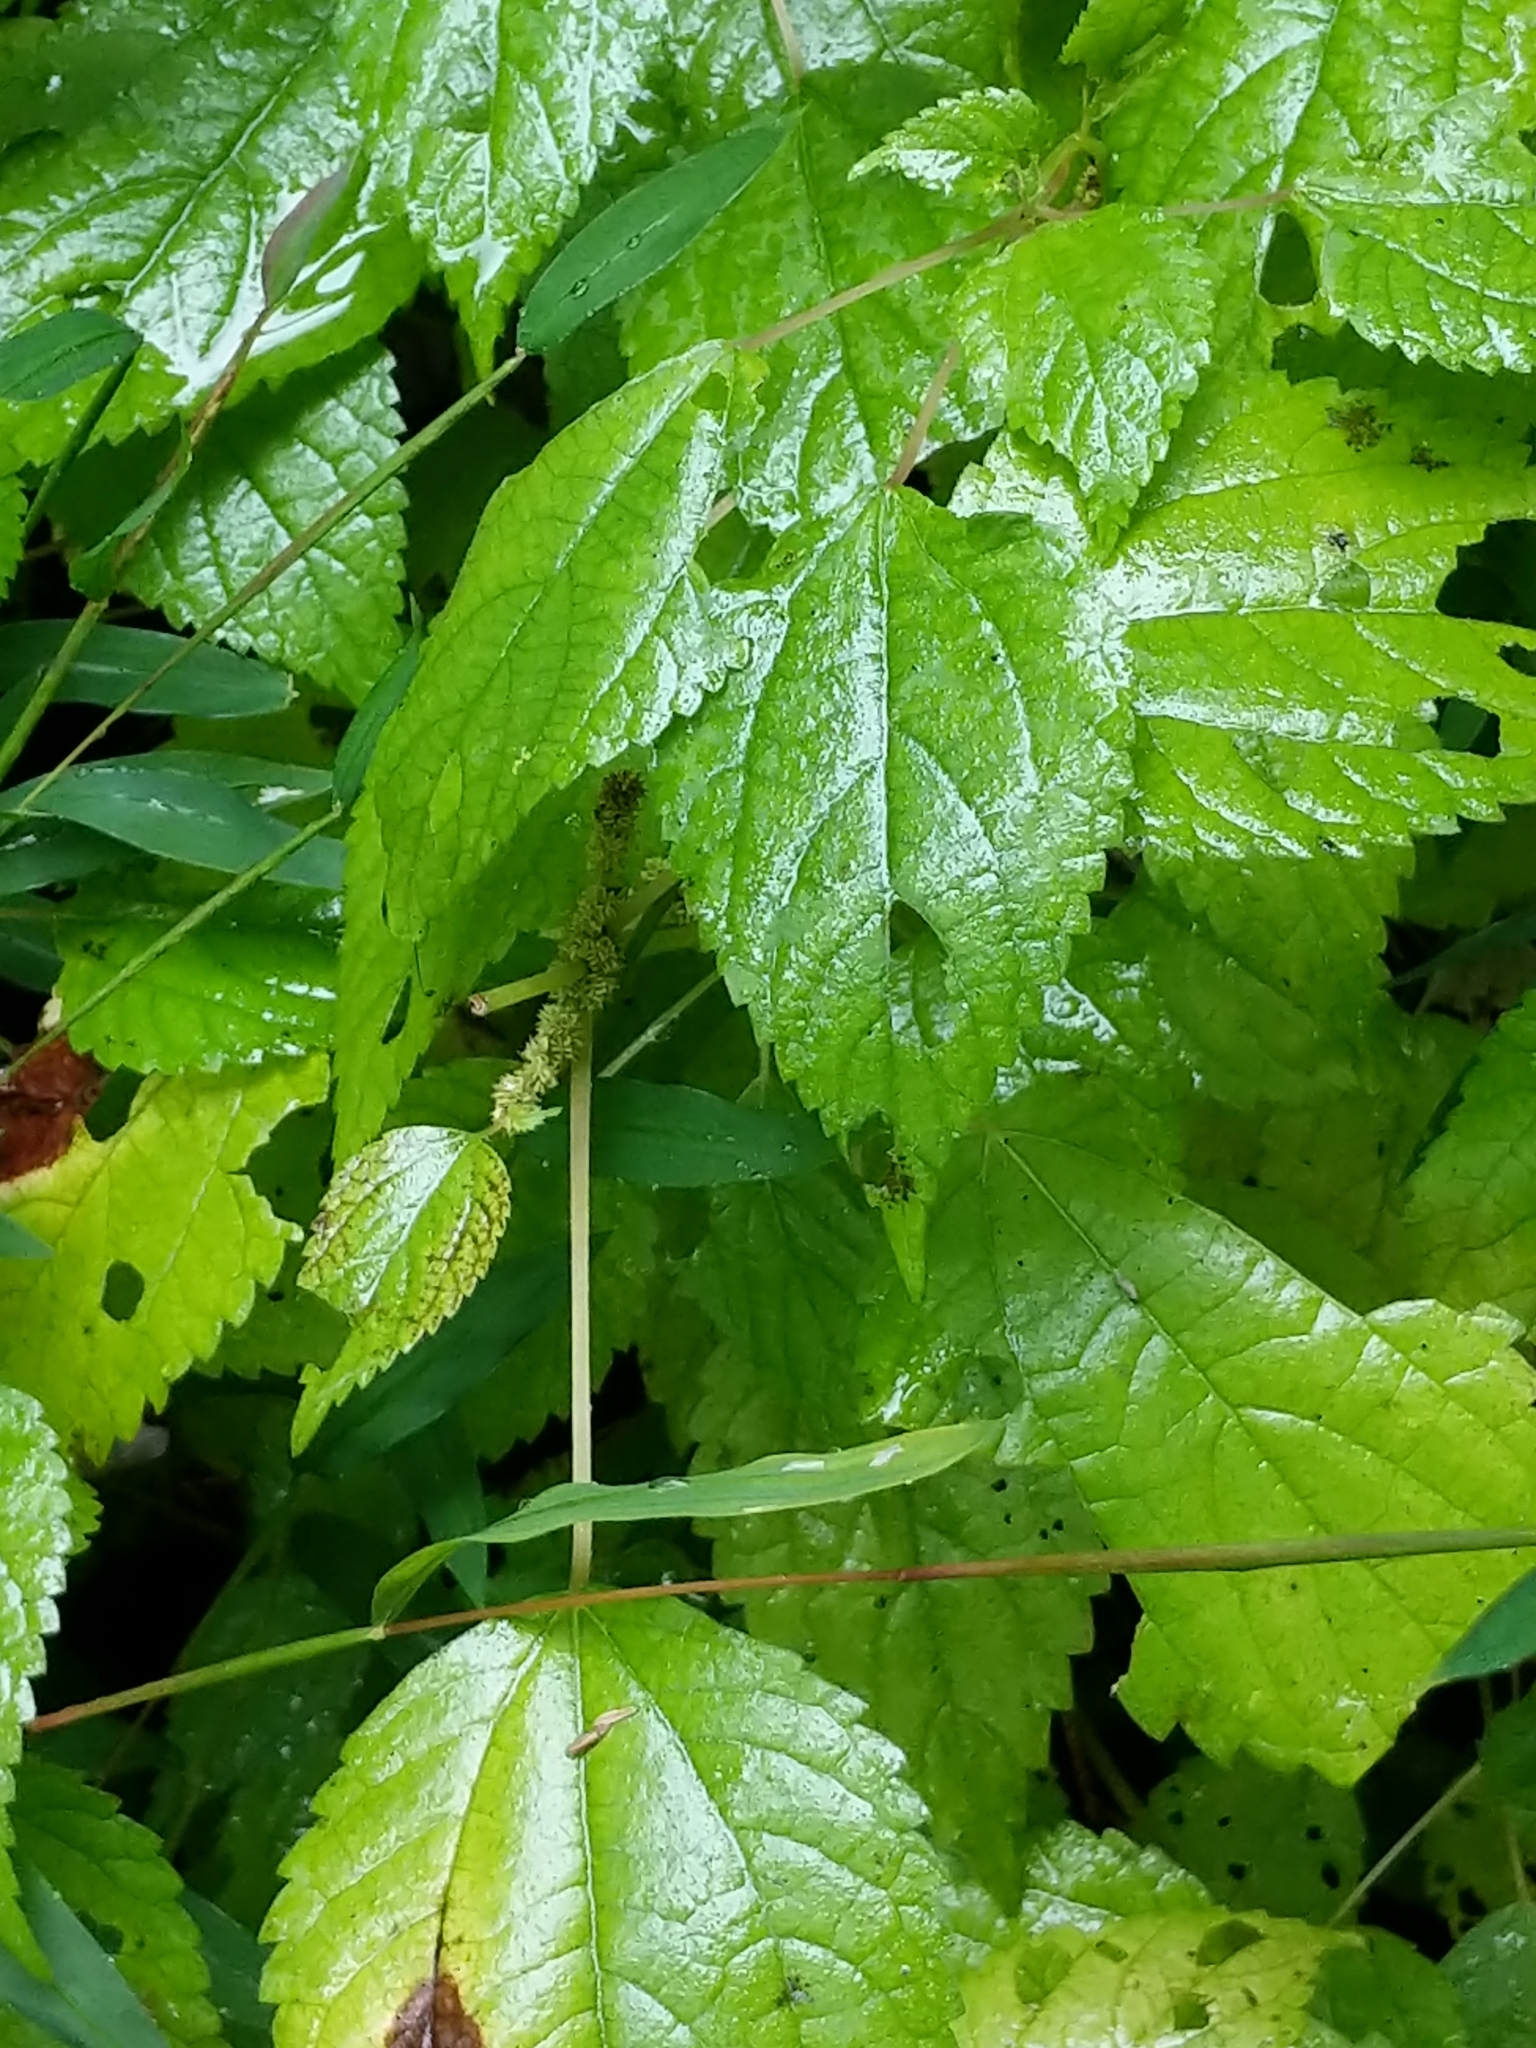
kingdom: Plantae
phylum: Tracheophyta
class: Magnoliopsida
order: Rosales
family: Urticaceae
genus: Boehmeria
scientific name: Boehmeria cylindrica
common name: Bog-hemp
